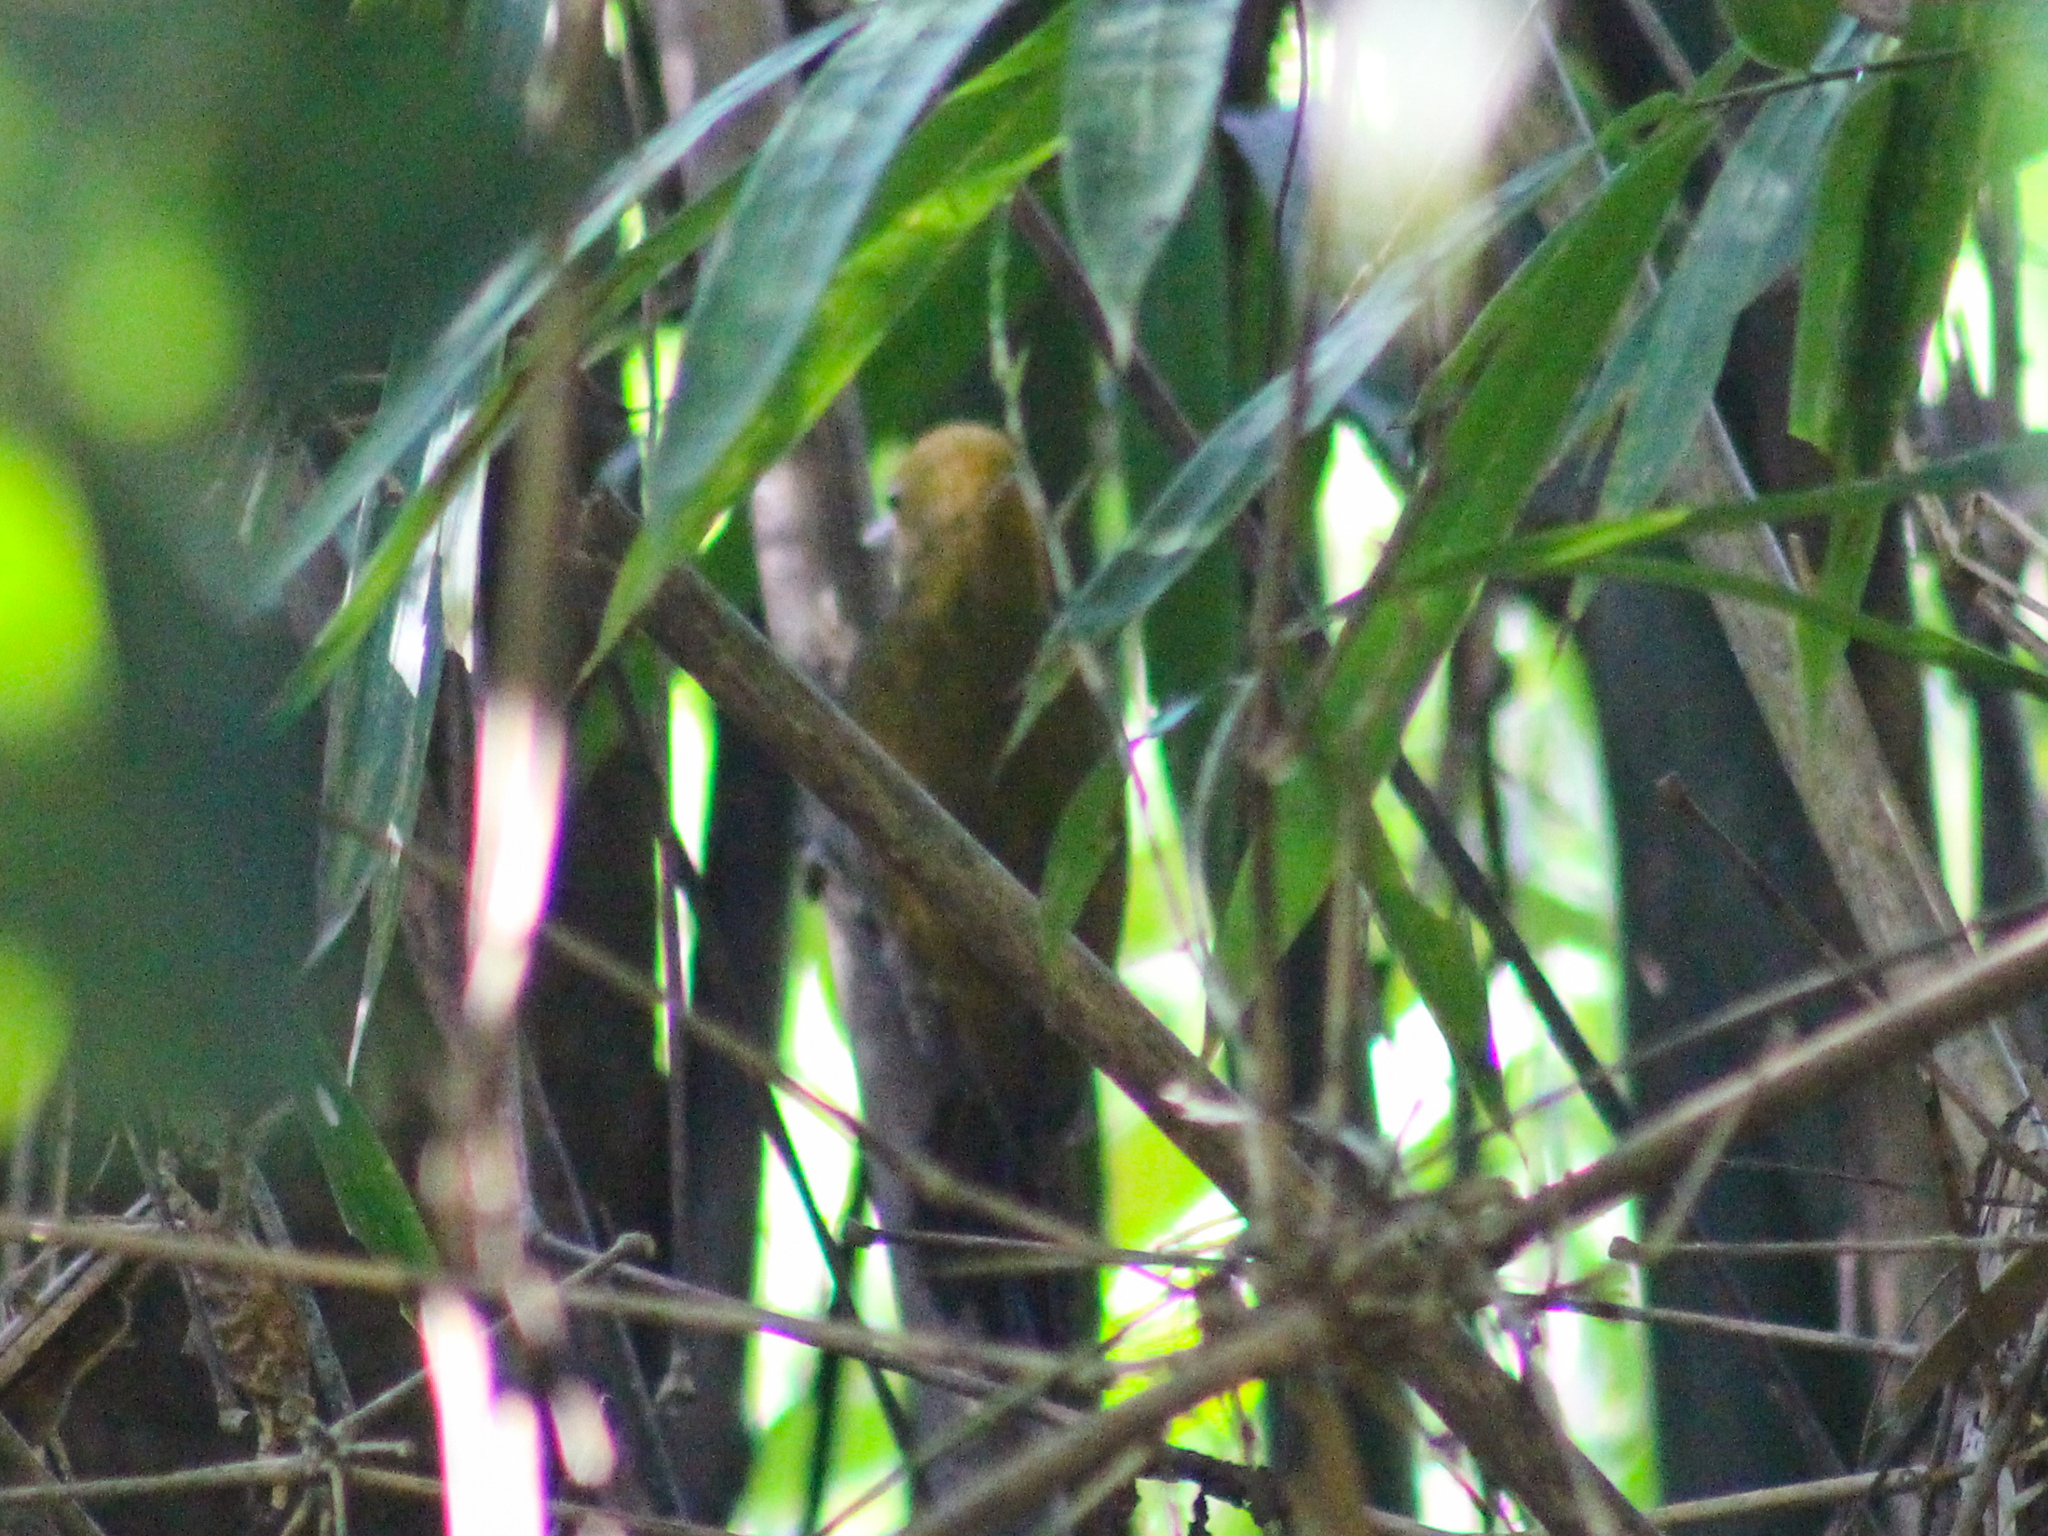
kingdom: Animalia
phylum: Chordata
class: Aves
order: Piciformes
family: Picidae
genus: Gecinulus
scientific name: Gecinulus viridis
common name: Bamboo woodpecker
